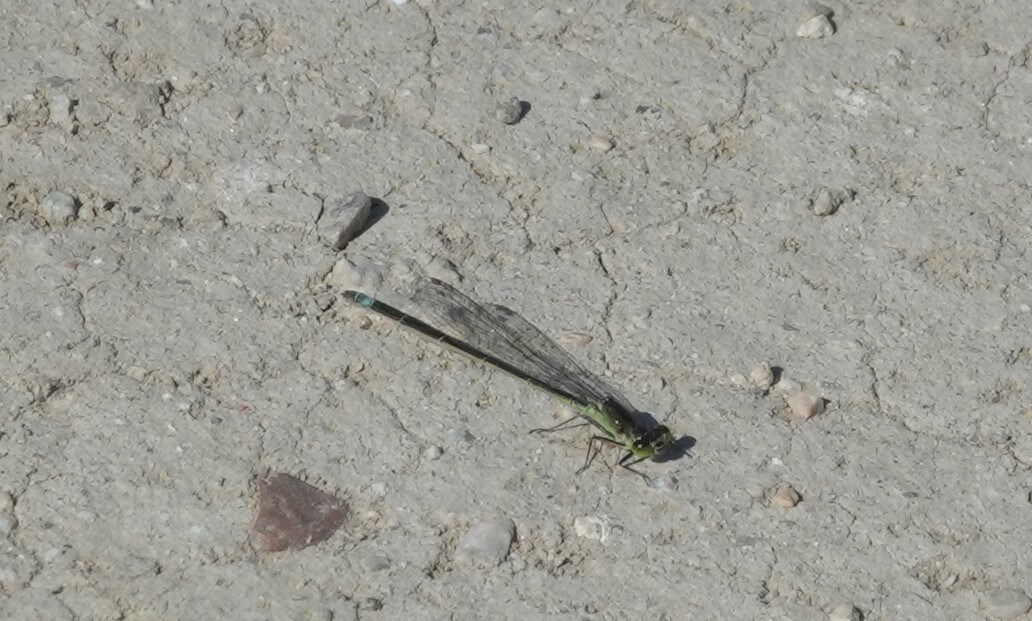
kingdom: Animalia
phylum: Arthropoda
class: Insecta
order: Odonata
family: Coenagrionidae
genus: Ischnura
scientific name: Ischnura denticollis
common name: Black-fronted forktail
